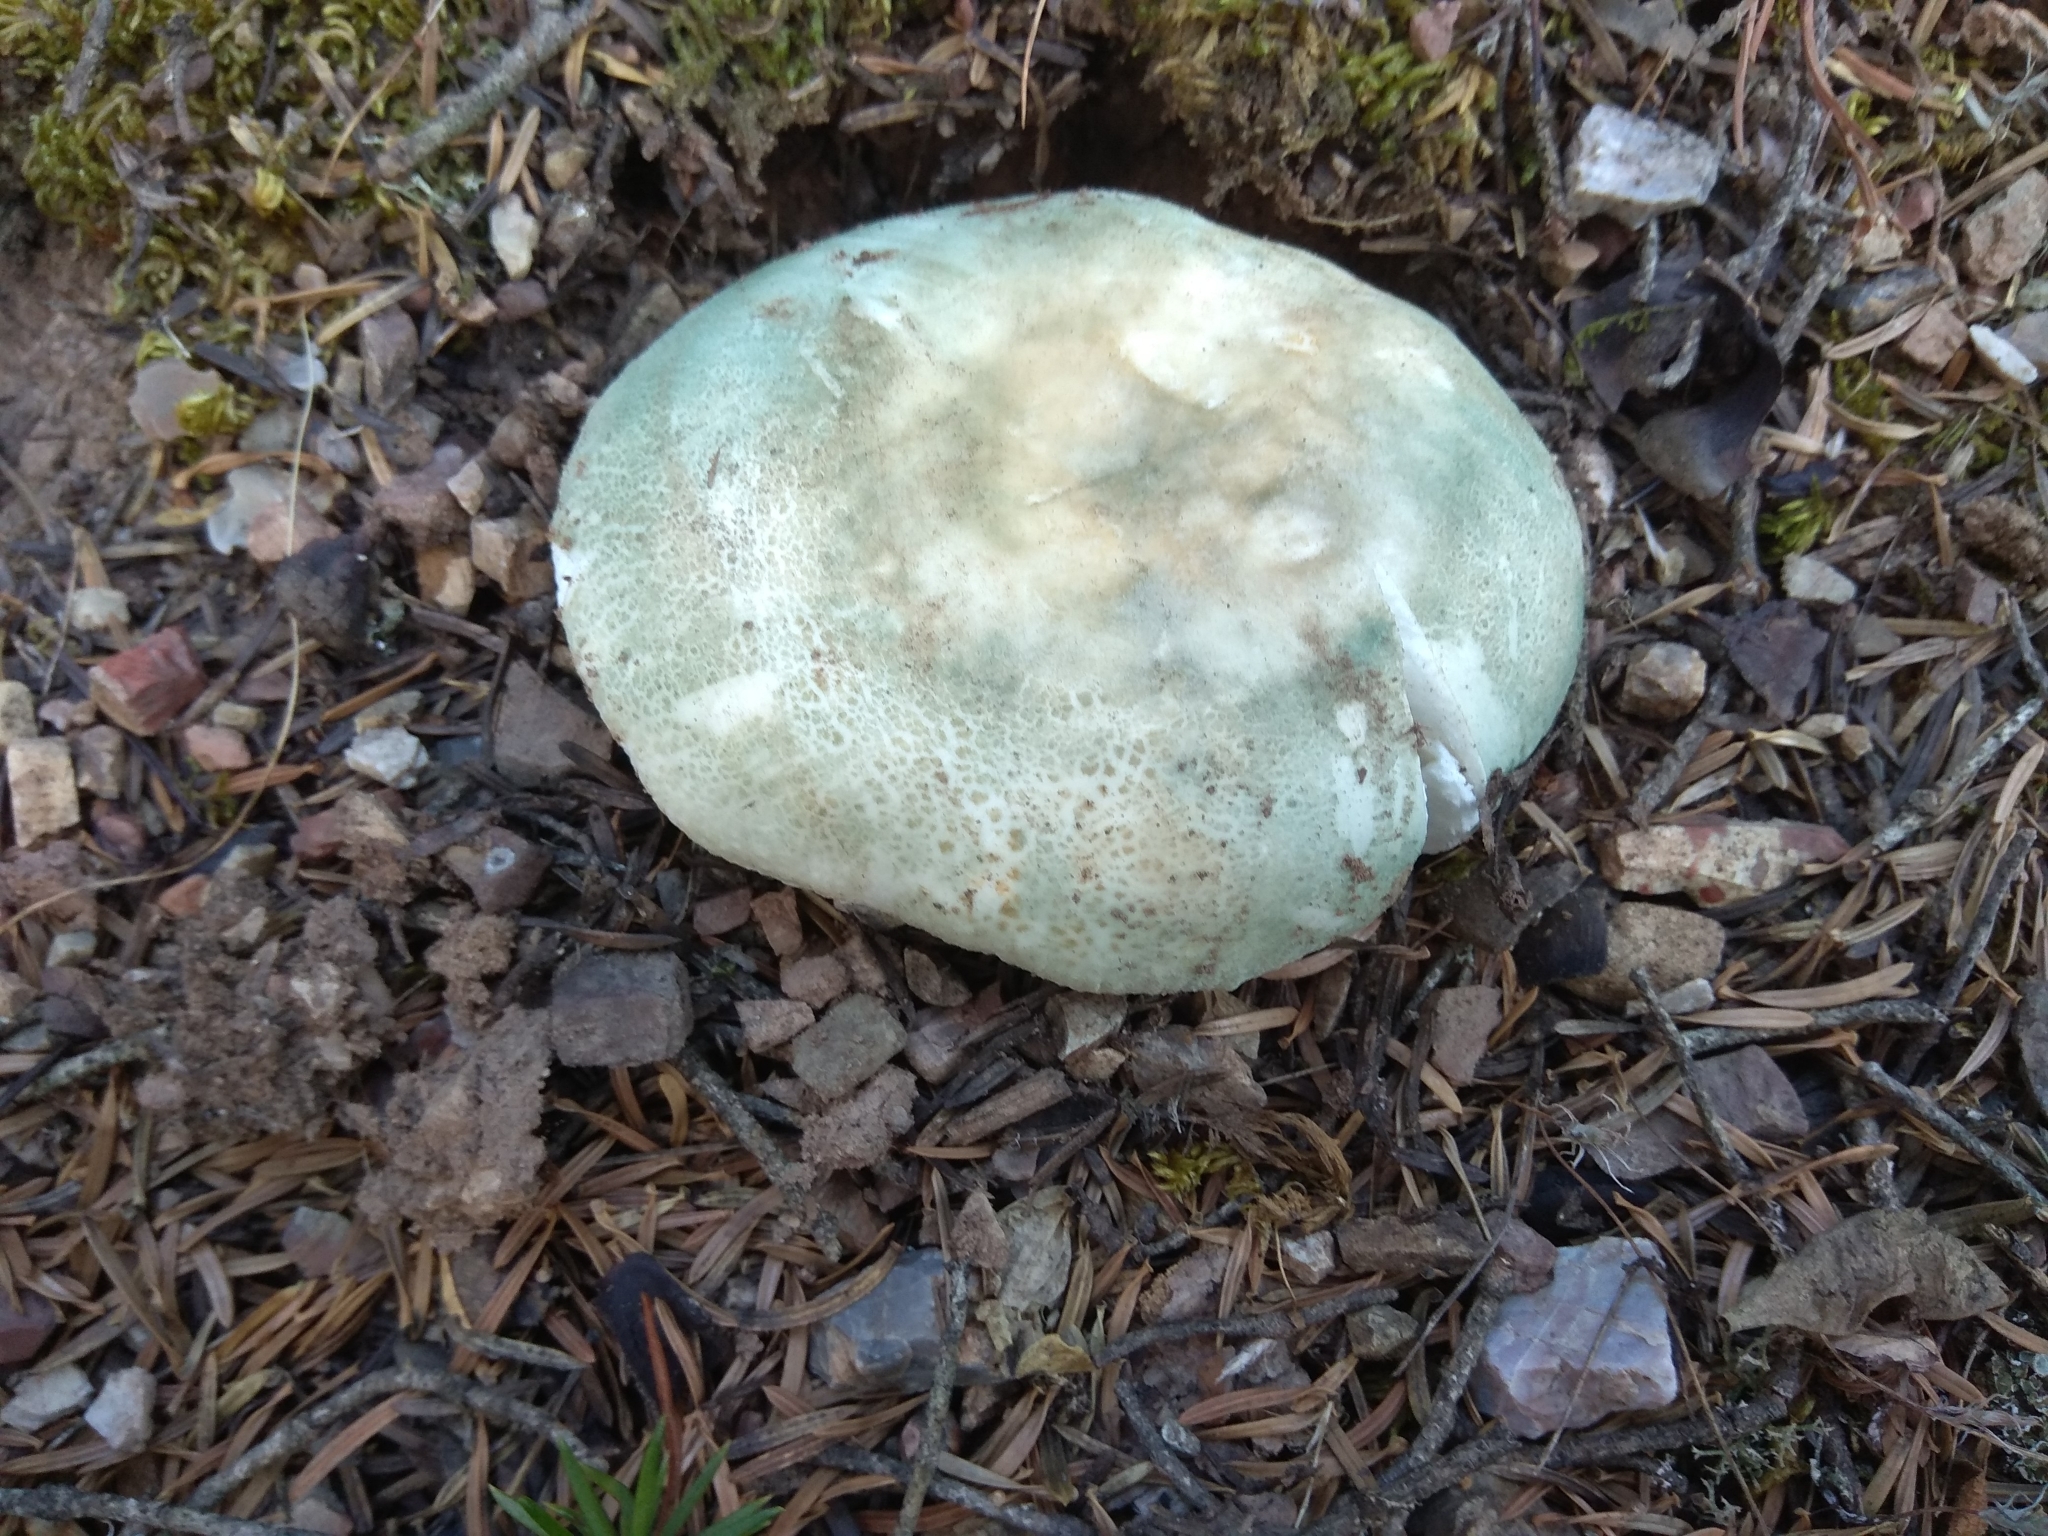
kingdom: Fungi
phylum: Basidiomycota
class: Agaricomycetes
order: Russulales
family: Russulaceae
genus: Russula
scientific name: Russula virescens
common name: Greencracked brittlegill
